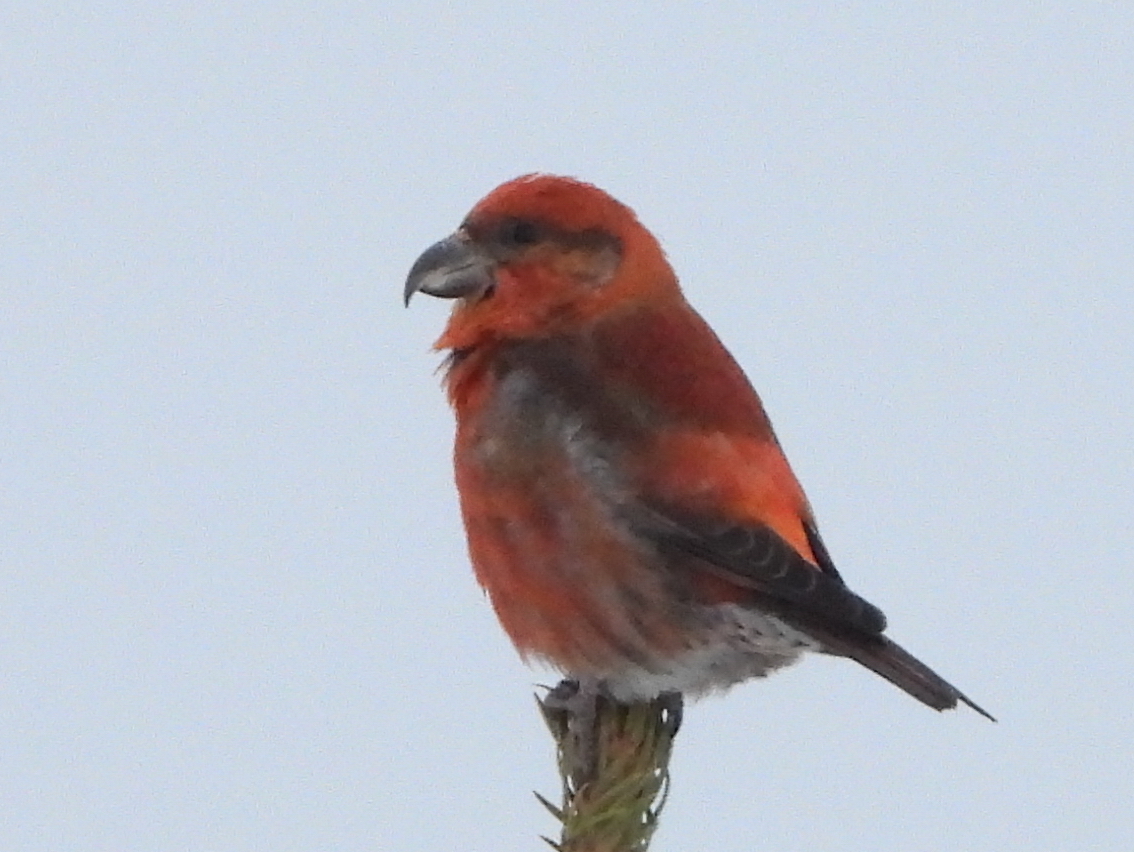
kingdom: Animalia
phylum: Chordata
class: Aves
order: Passeriformes
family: Fringillidae
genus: Loxia
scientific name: Loxia curvirostra
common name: Red crossbill
